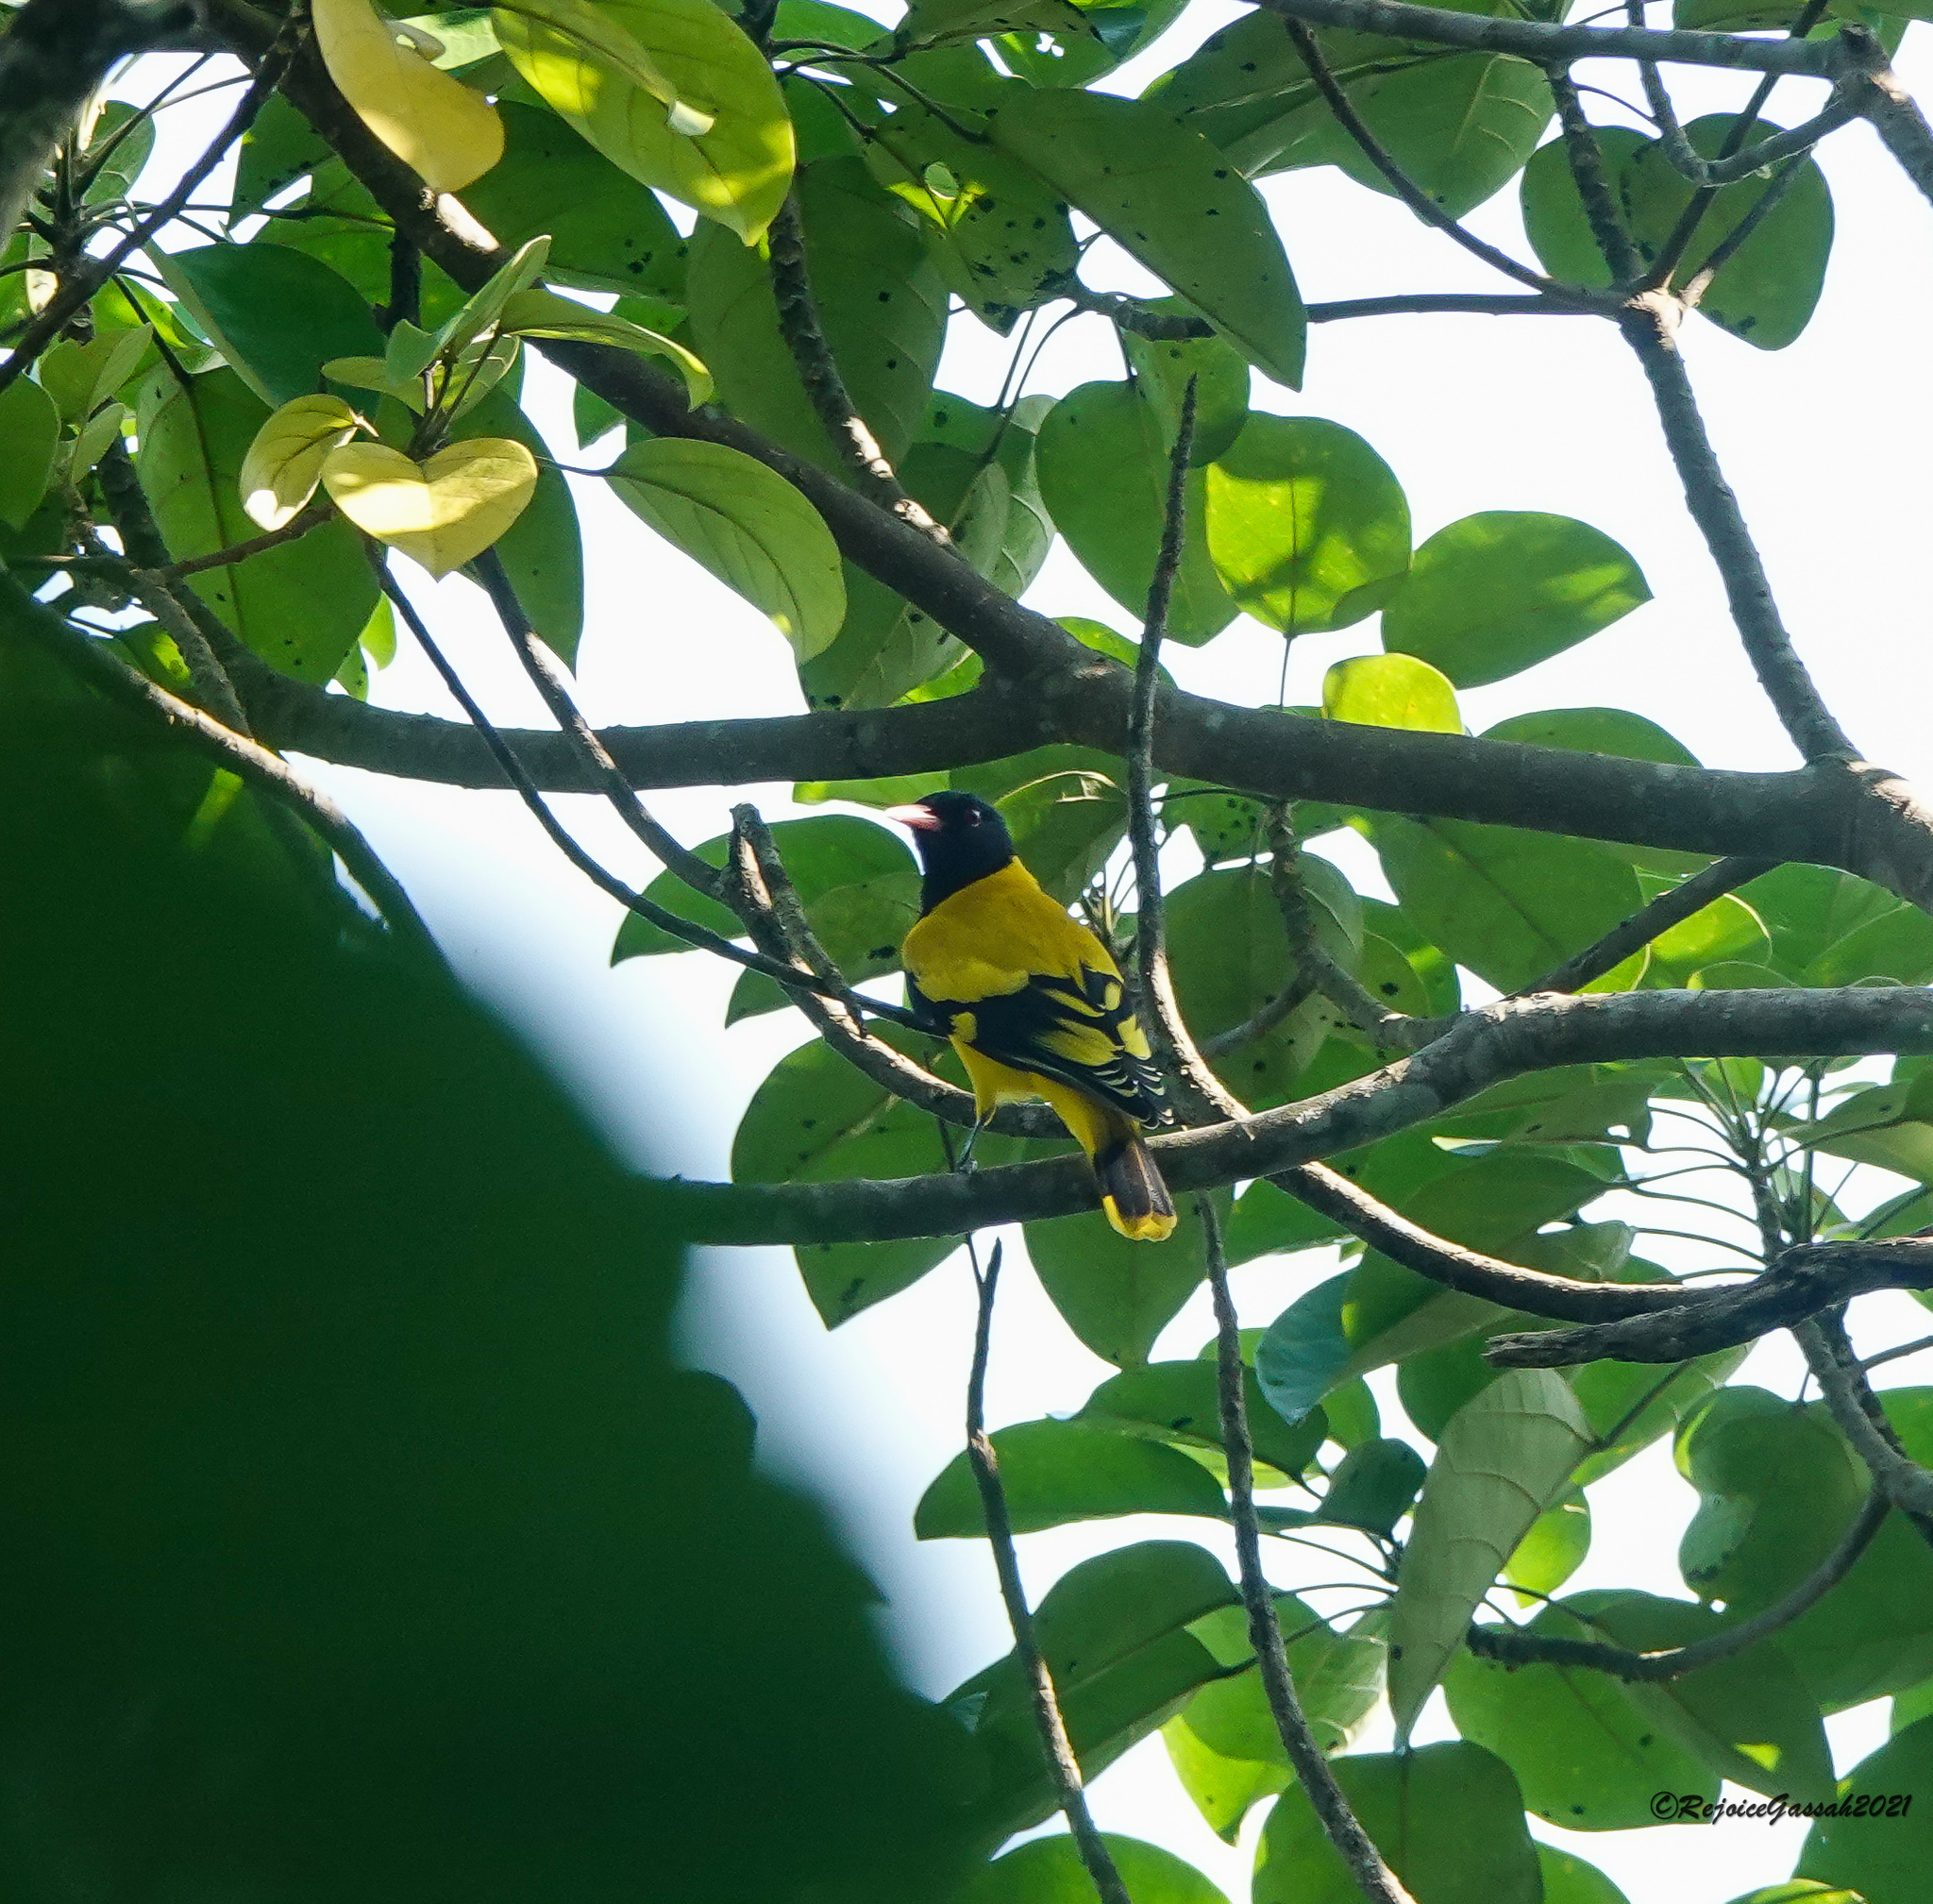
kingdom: Animalia
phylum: Chordata
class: Aves
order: Passeriformes
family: Oriolidae
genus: Oriolus
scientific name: Oriolus xanthornus
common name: Black-hooded oriole
